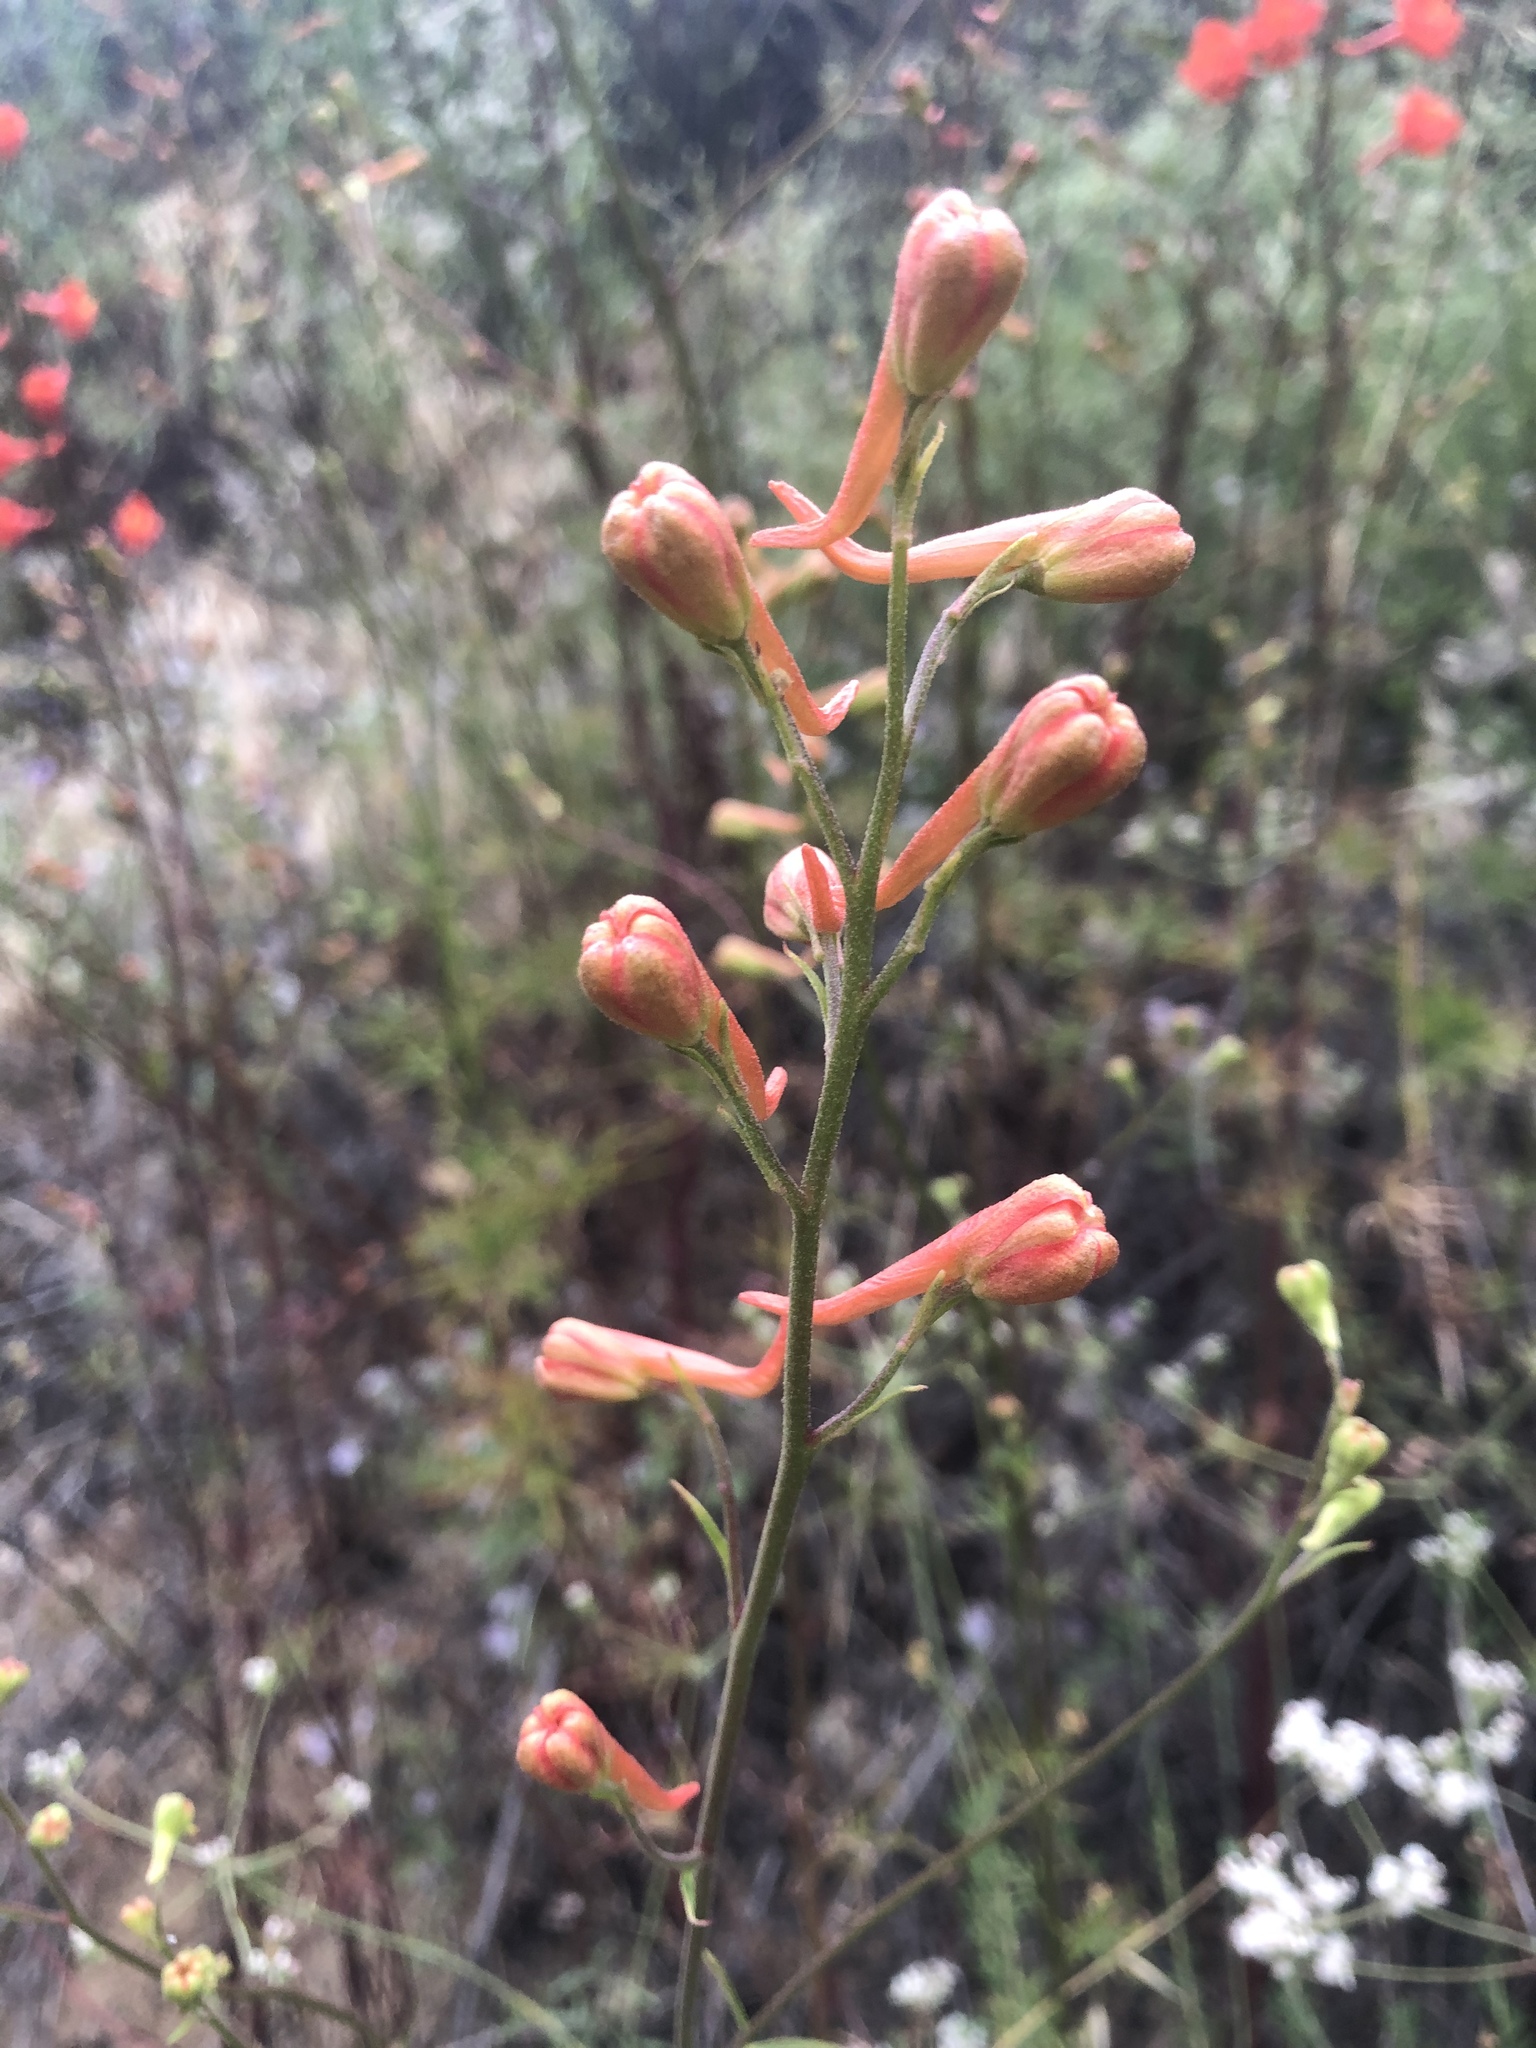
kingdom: Plantae
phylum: Tracheophyta
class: Magnoliopsida
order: Ranunculales
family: Ranunculaceae
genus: Delphinium
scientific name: Delphinium cardinale
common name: Scarlet larkspur
